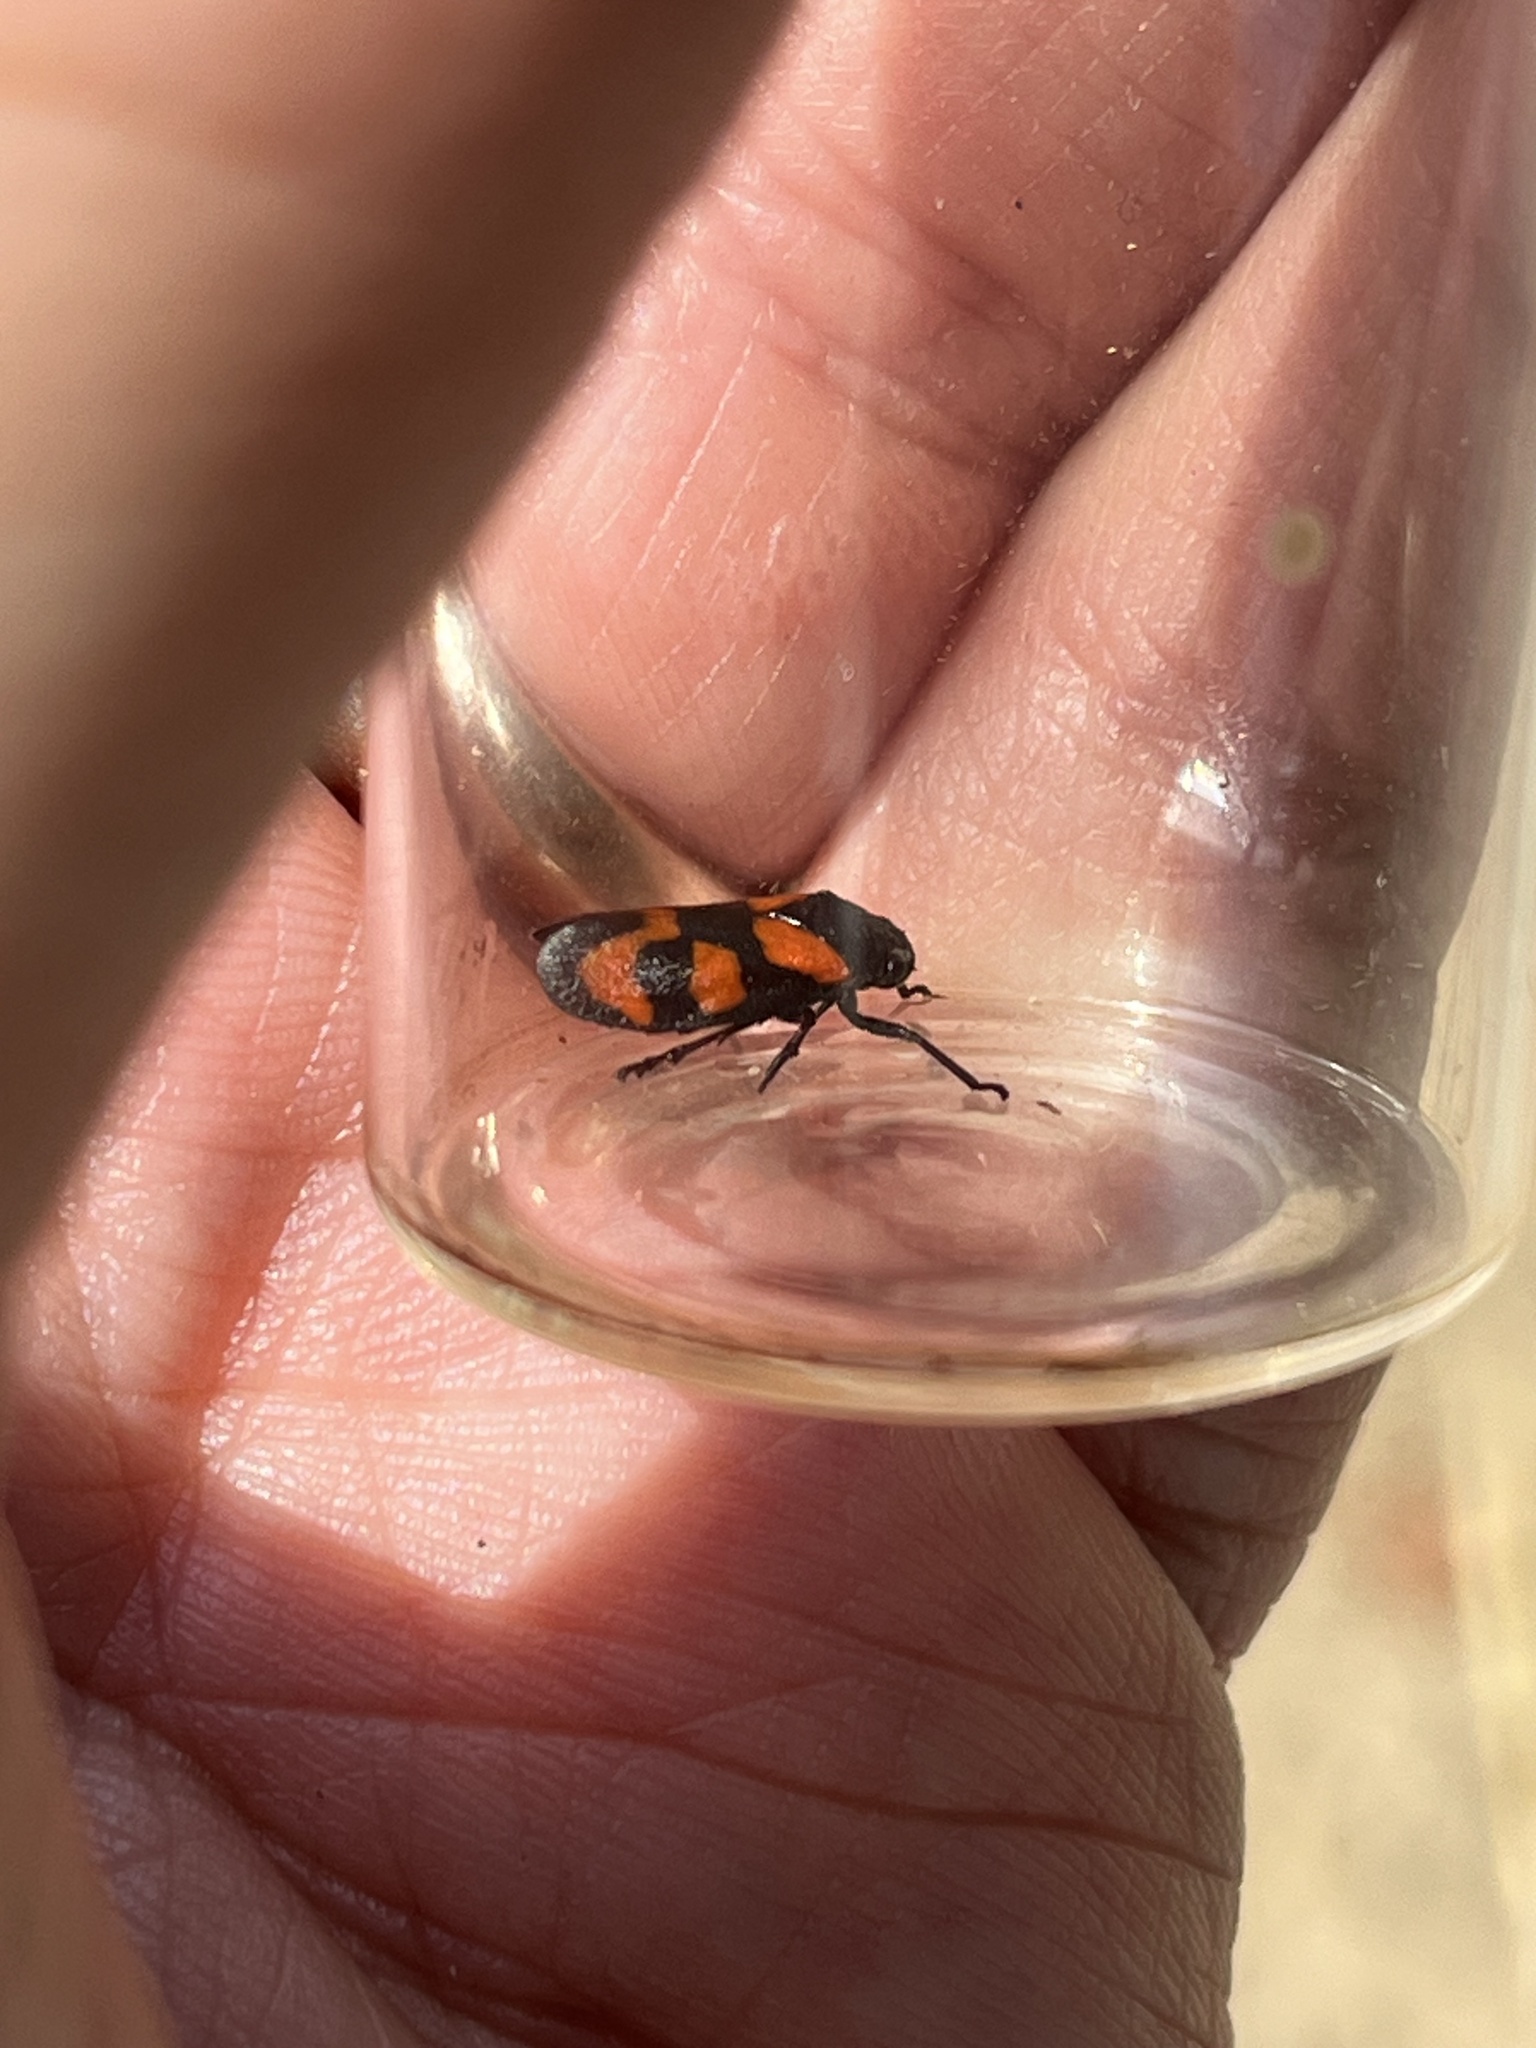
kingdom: Animalia
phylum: Arthropoda
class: Insecta
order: Hemiptera
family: Cercopidae
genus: Cercopis
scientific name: Cercopis vulnerata
